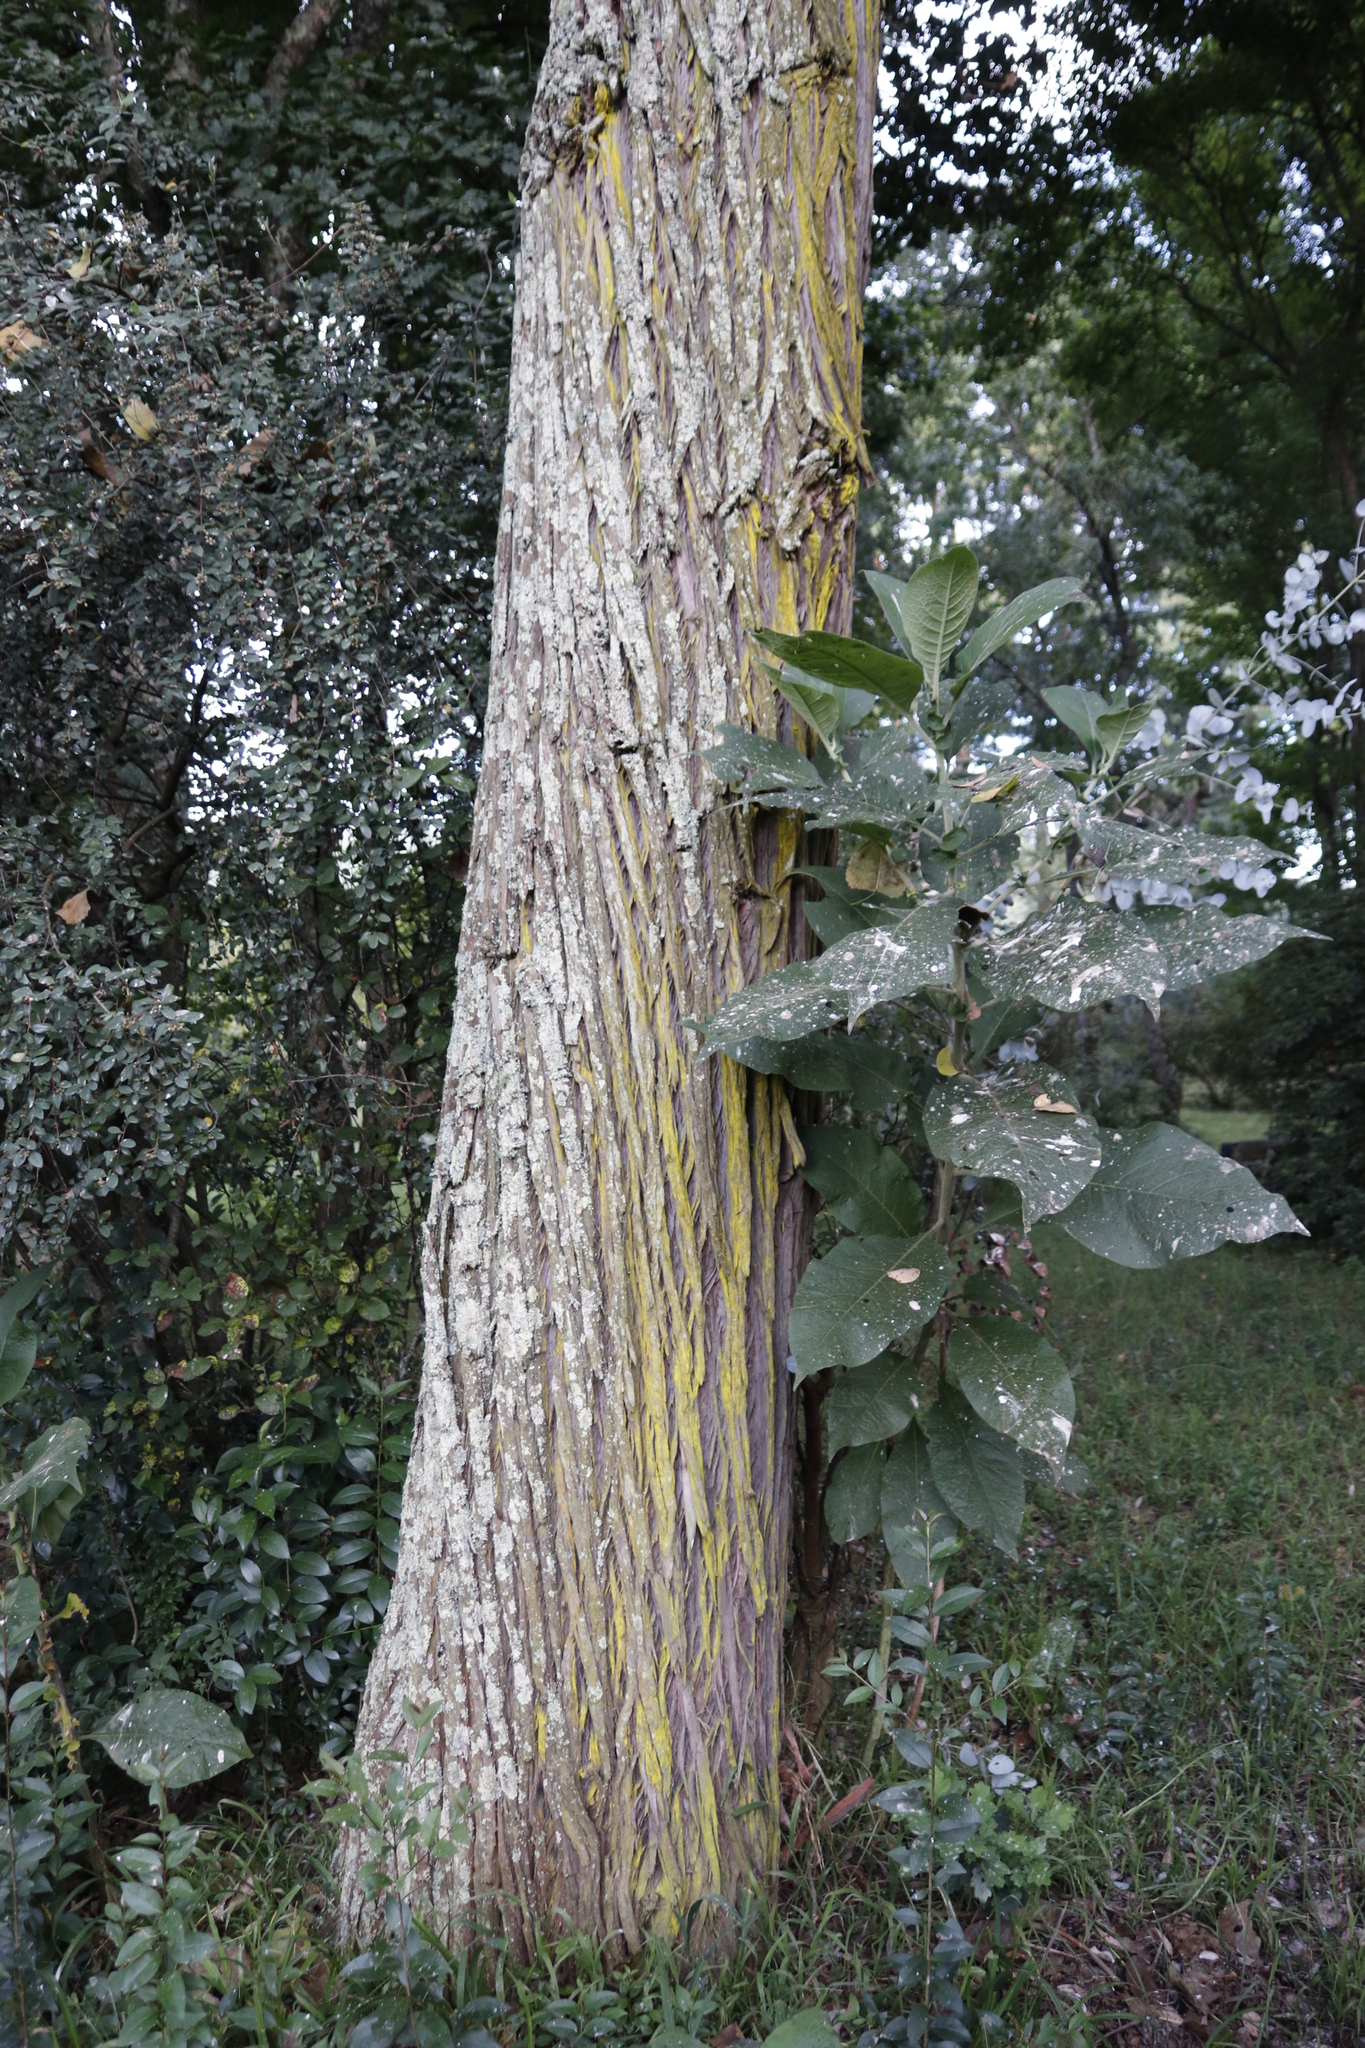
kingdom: Plantae
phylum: Tracheophyta
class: Magnoliopsida
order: Myrtales
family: Myrtaceae
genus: Eucalyptus
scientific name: Eucalyptus cinerea
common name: Argyle apple
